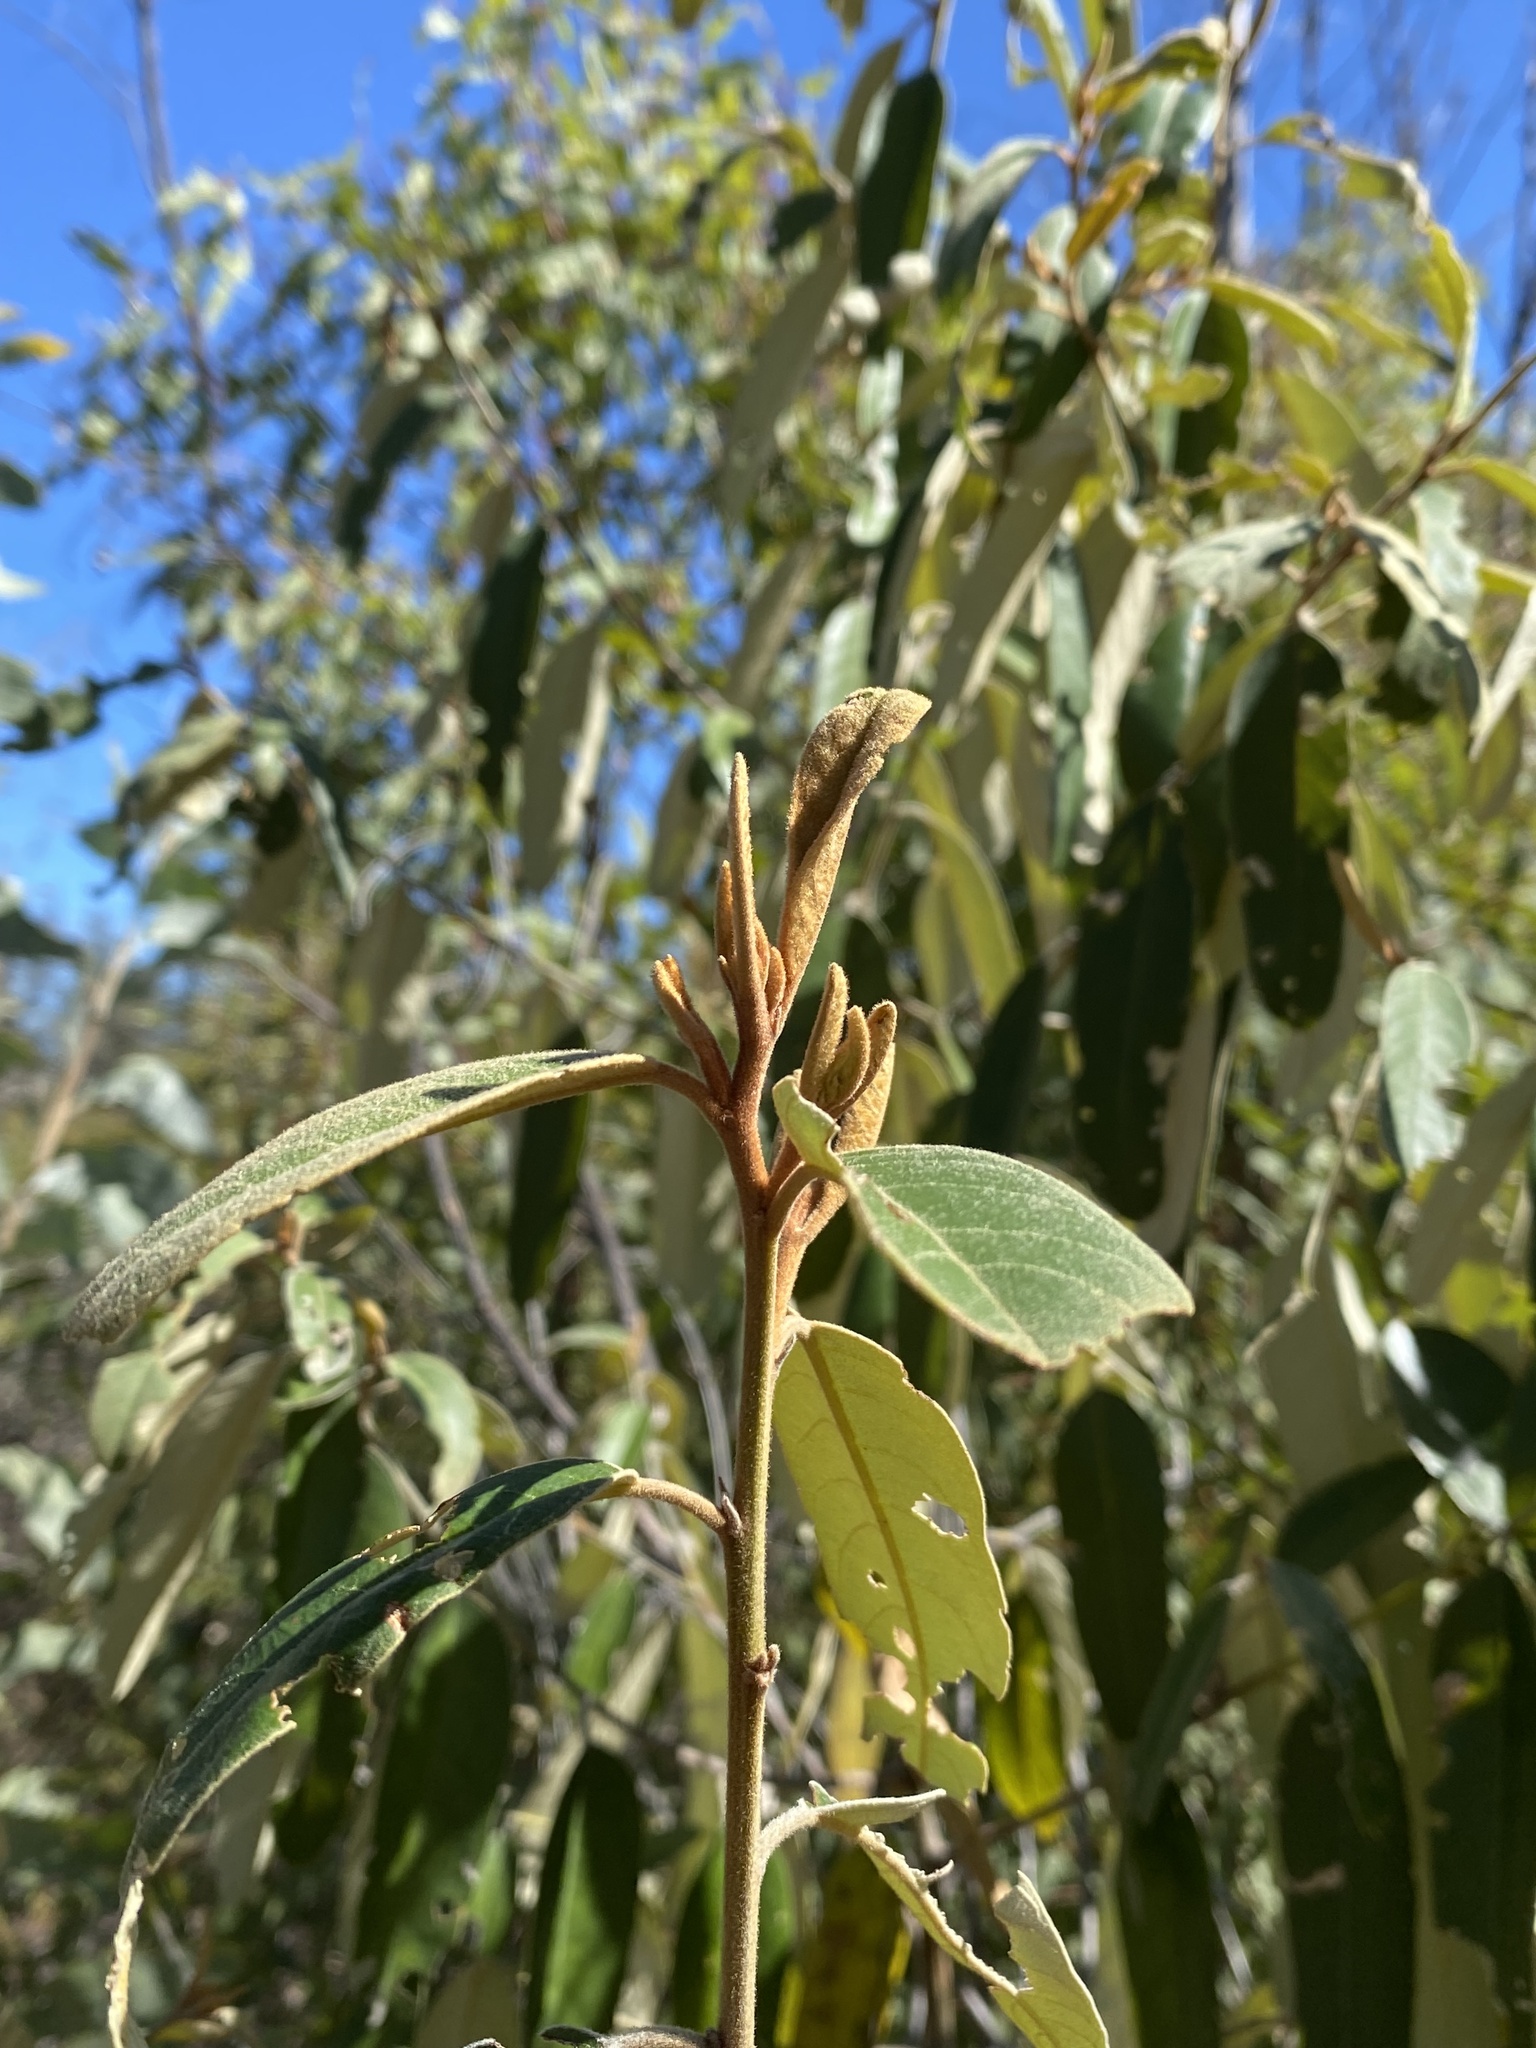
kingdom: Plantae
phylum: Tracheophyta
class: Magnoliopsida
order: Rosales
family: Rhamnaceae
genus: Alphitonia
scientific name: Alphitonia excelsa
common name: Red ash
